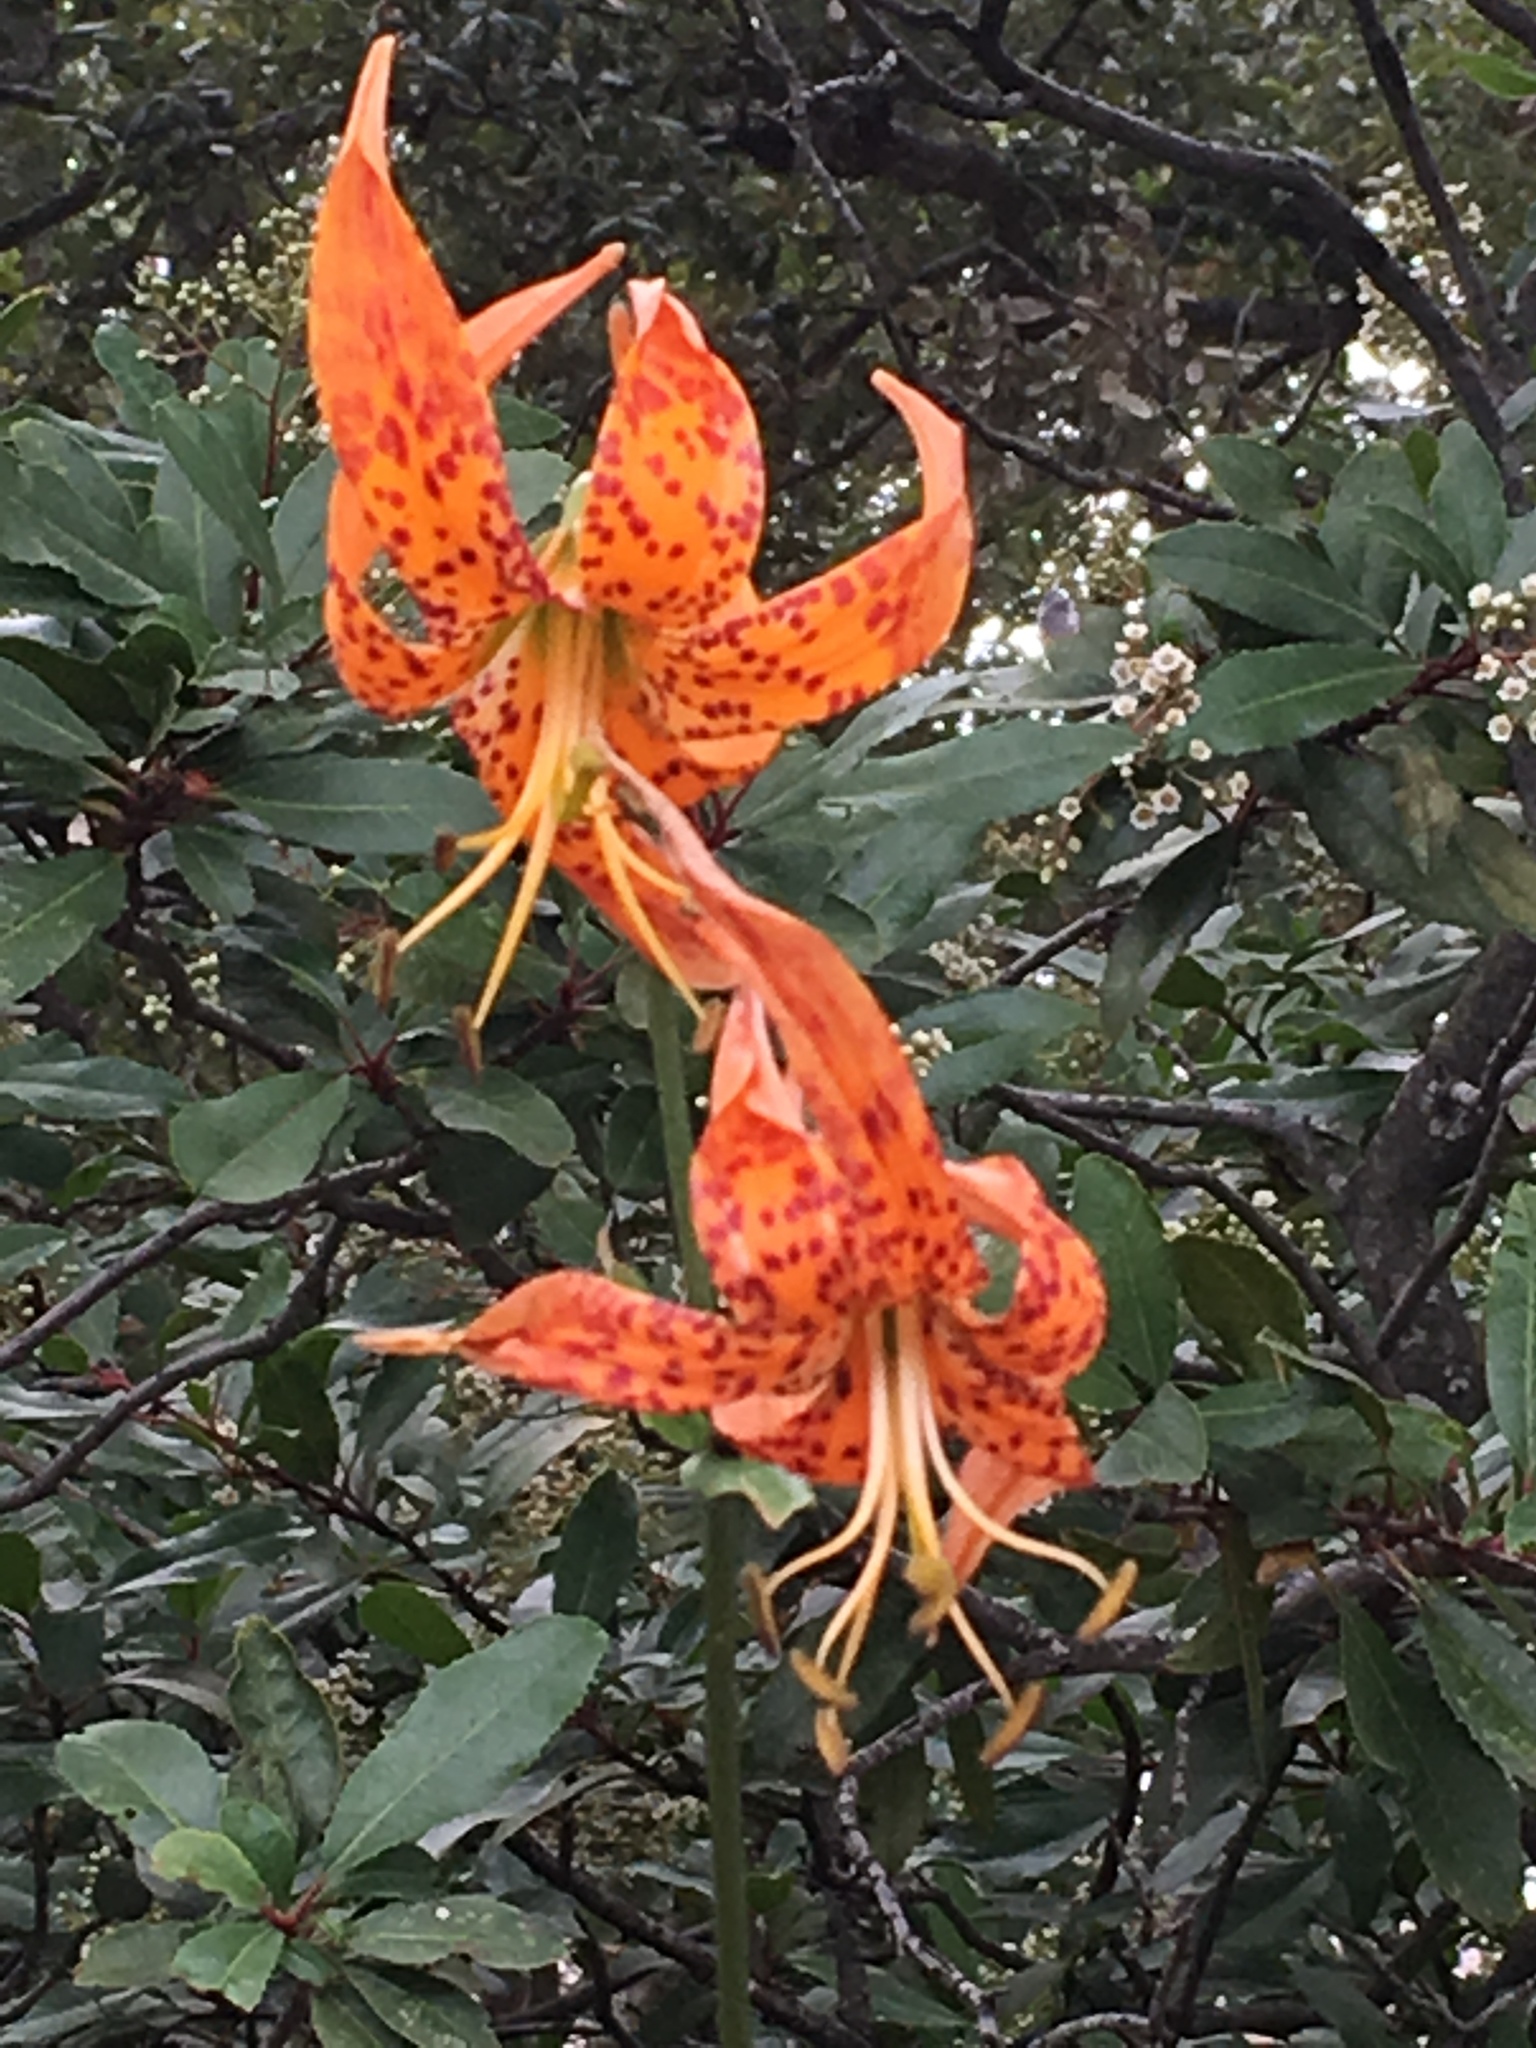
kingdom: Plantae
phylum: Tracheophyta
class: Liliopsida
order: Liliales
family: Liliaceae
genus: Lilium
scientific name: Lilium humboldtii
